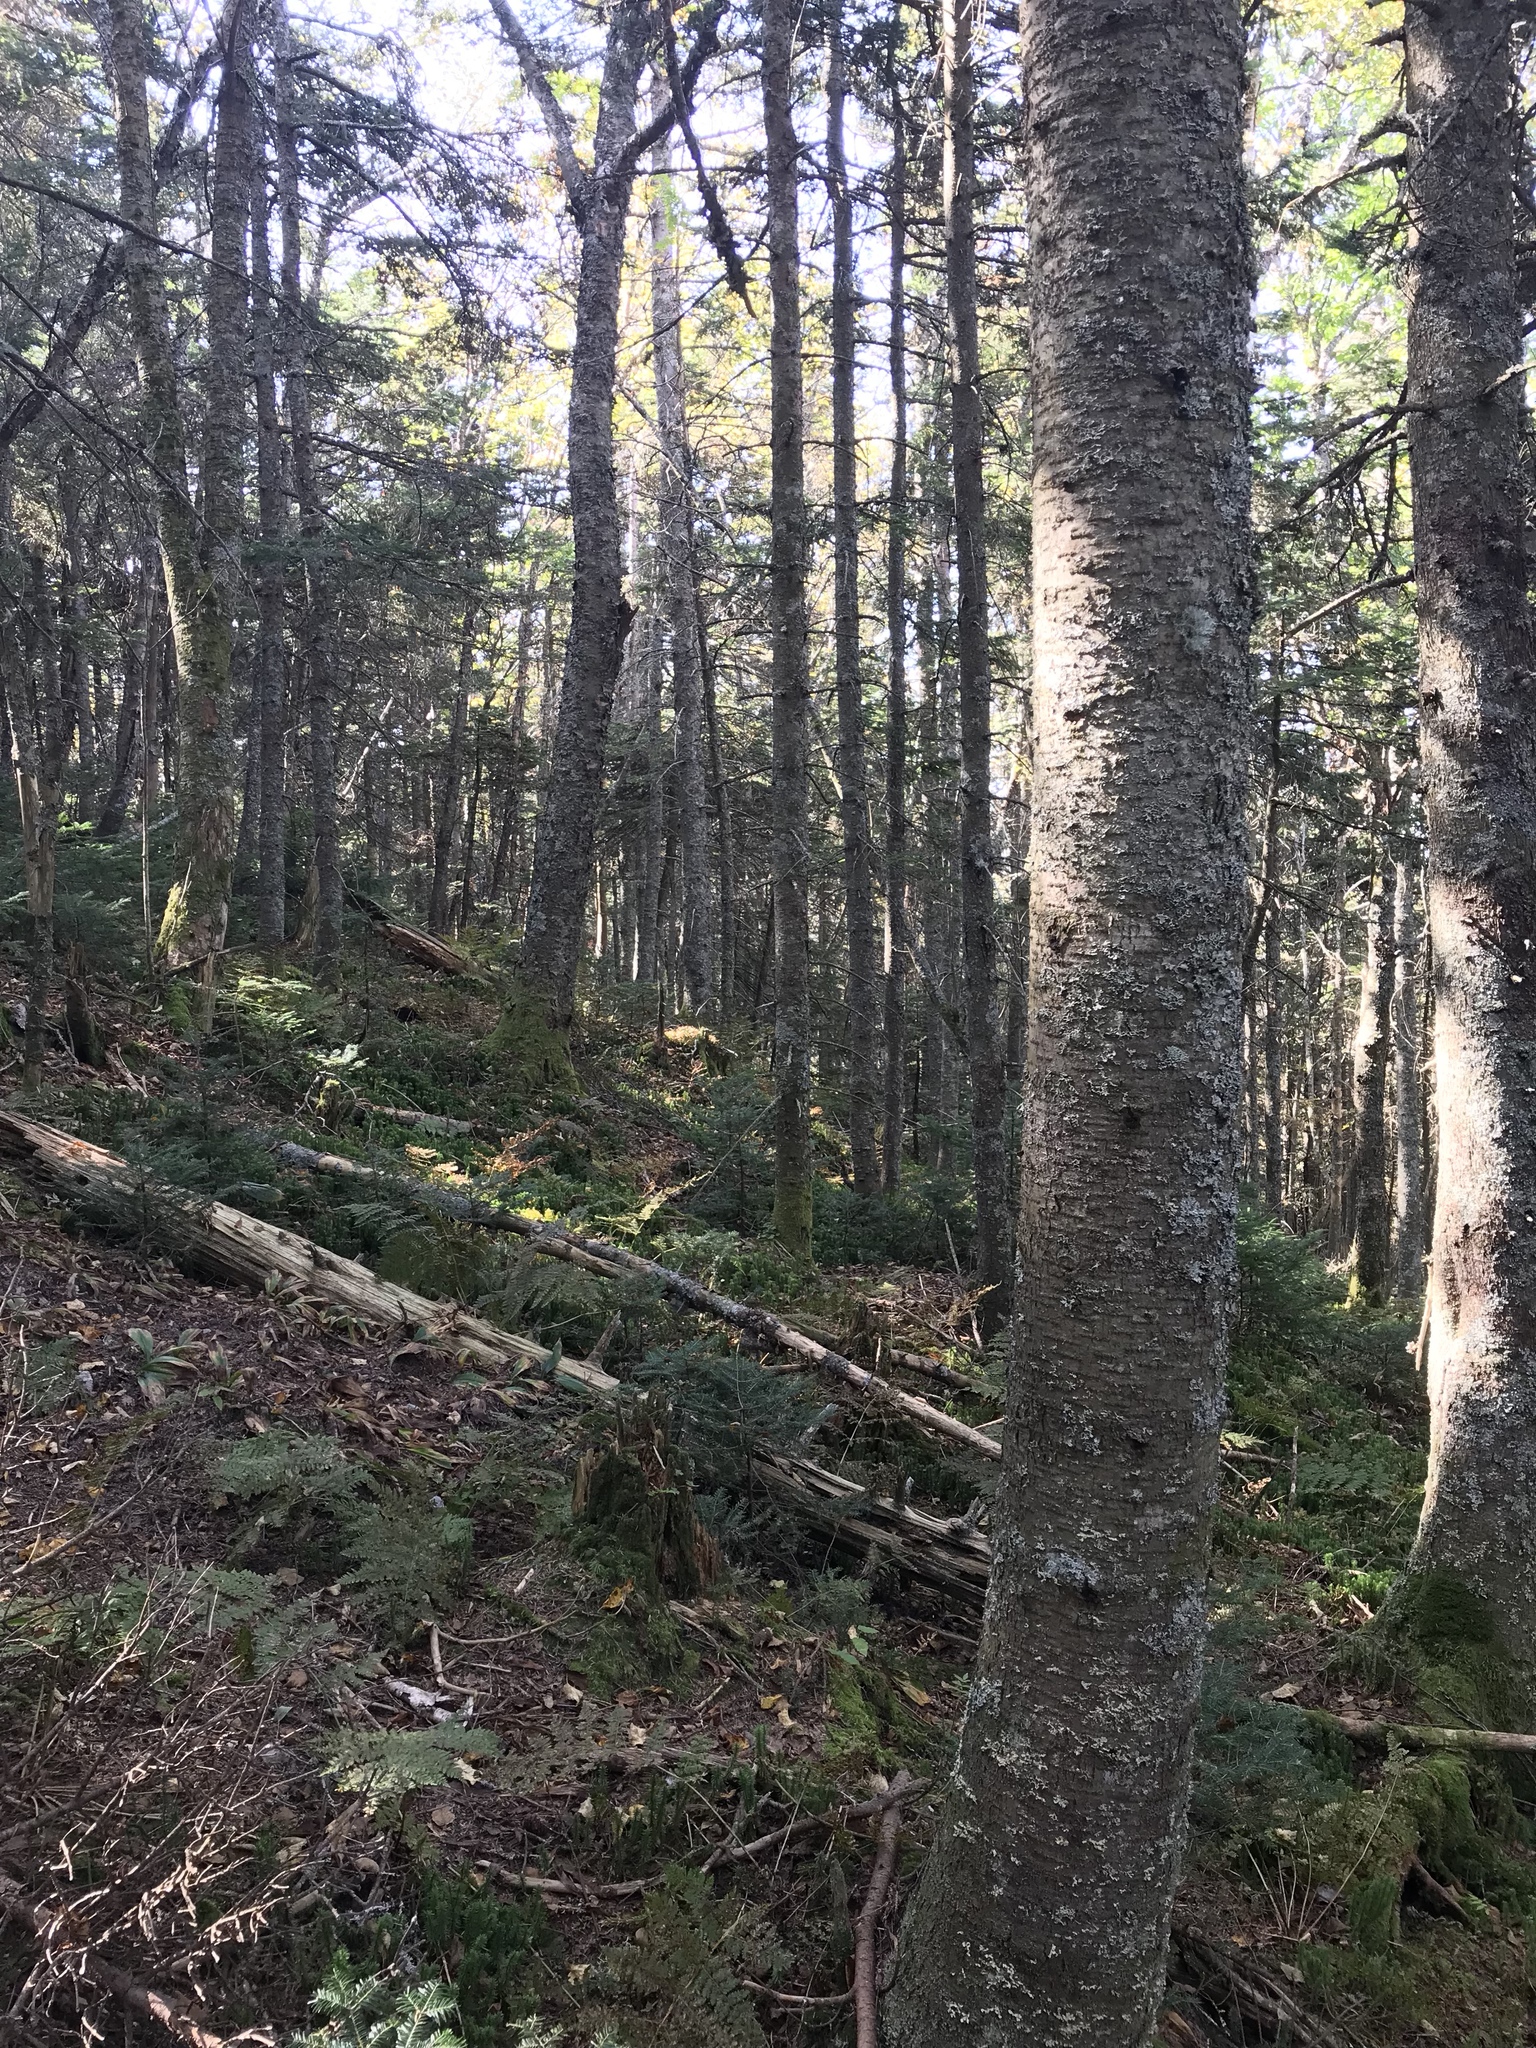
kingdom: Plantae
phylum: Tracheophyta
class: Pinopsida
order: Pinales
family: Pinaceae
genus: Abies
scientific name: Abies balsamea
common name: Balsam fir
